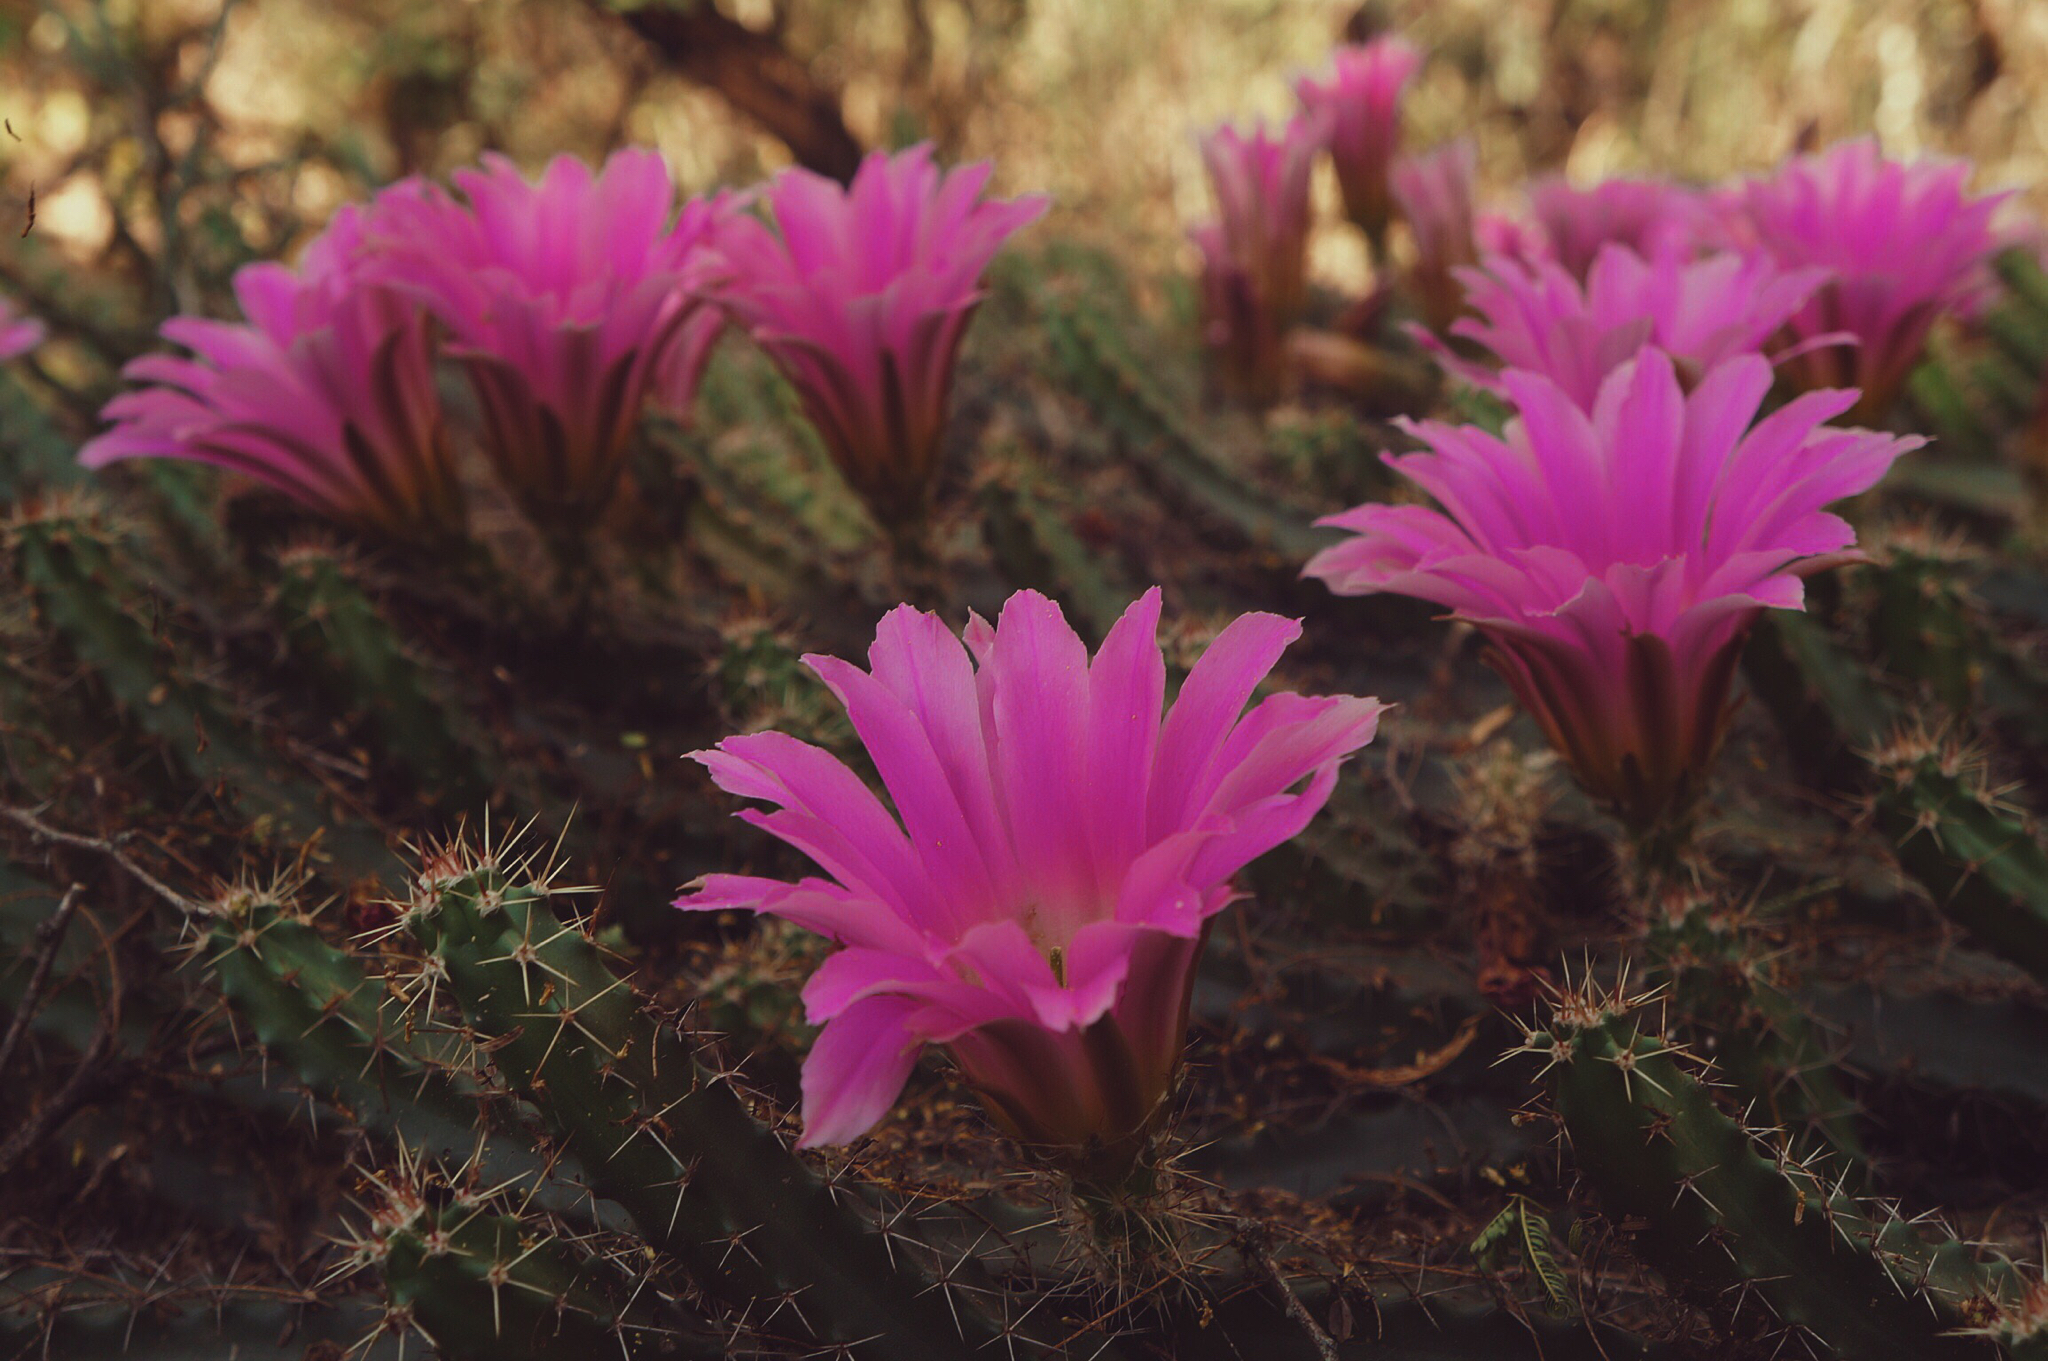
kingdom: Plantae
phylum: Tracheophyta
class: Magnoliopsida
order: Caryophyllales
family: Cactaceae
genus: Echinocereus
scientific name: Echinocereus pentalophus
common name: Ladyfinger cactus
